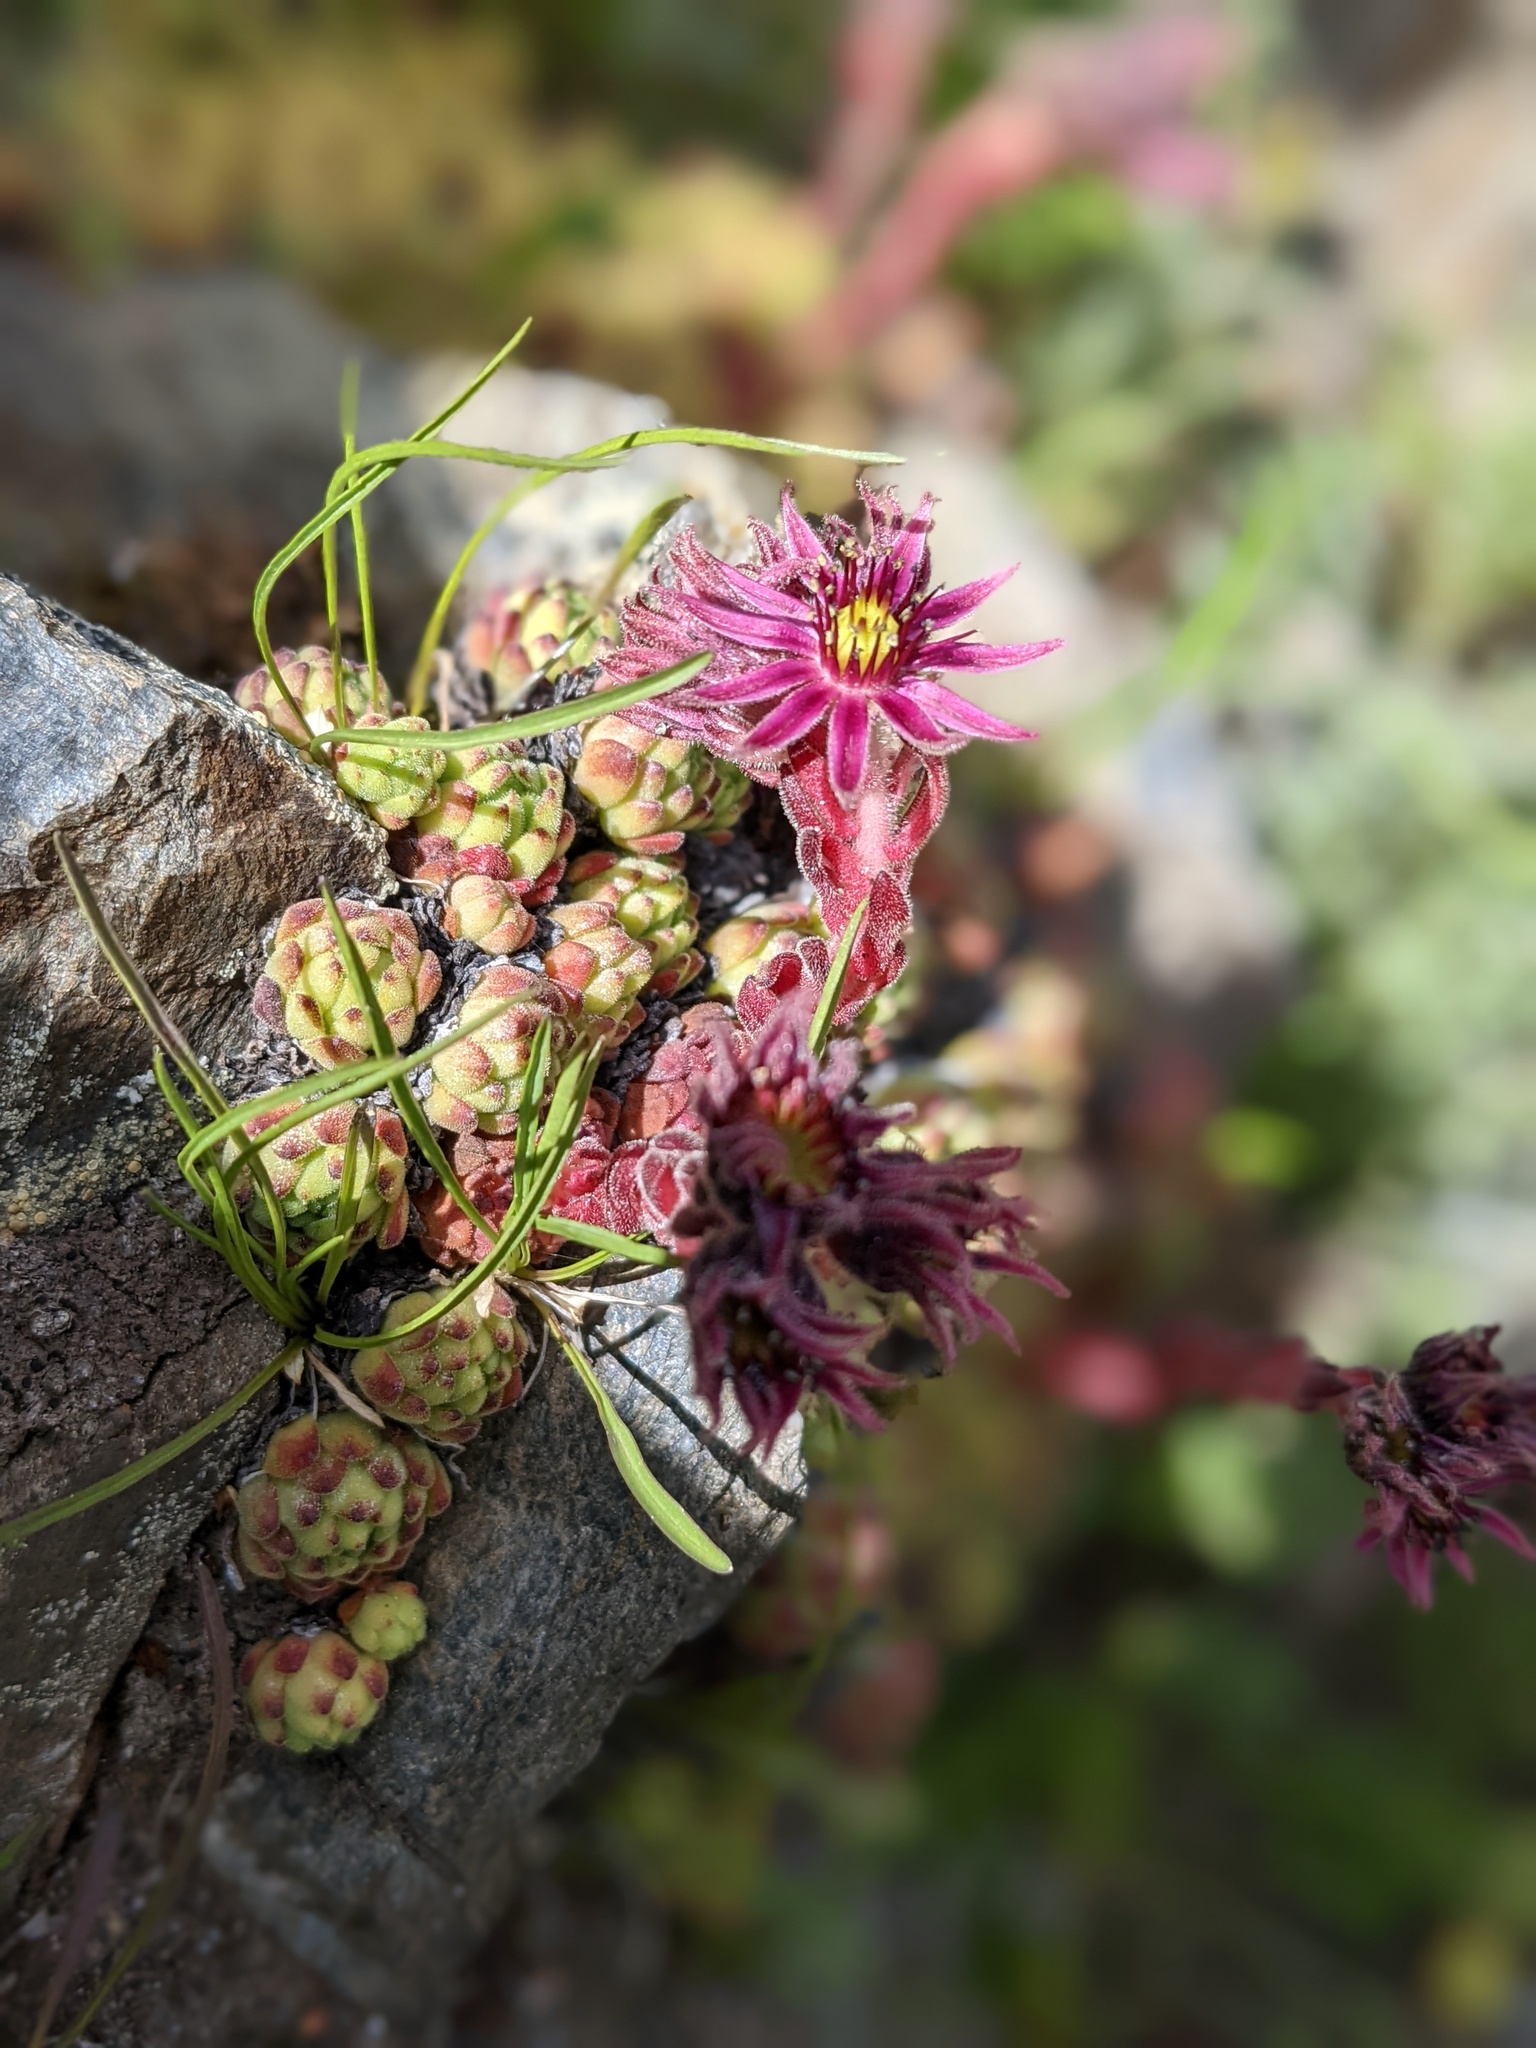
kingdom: Plantae
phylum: Tracheophyta
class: Magnoliopsida
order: Saxifragales
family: Crassulaceae
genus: Sempervivum
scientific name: Sempervivum montanum
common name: Mountain house-leek
